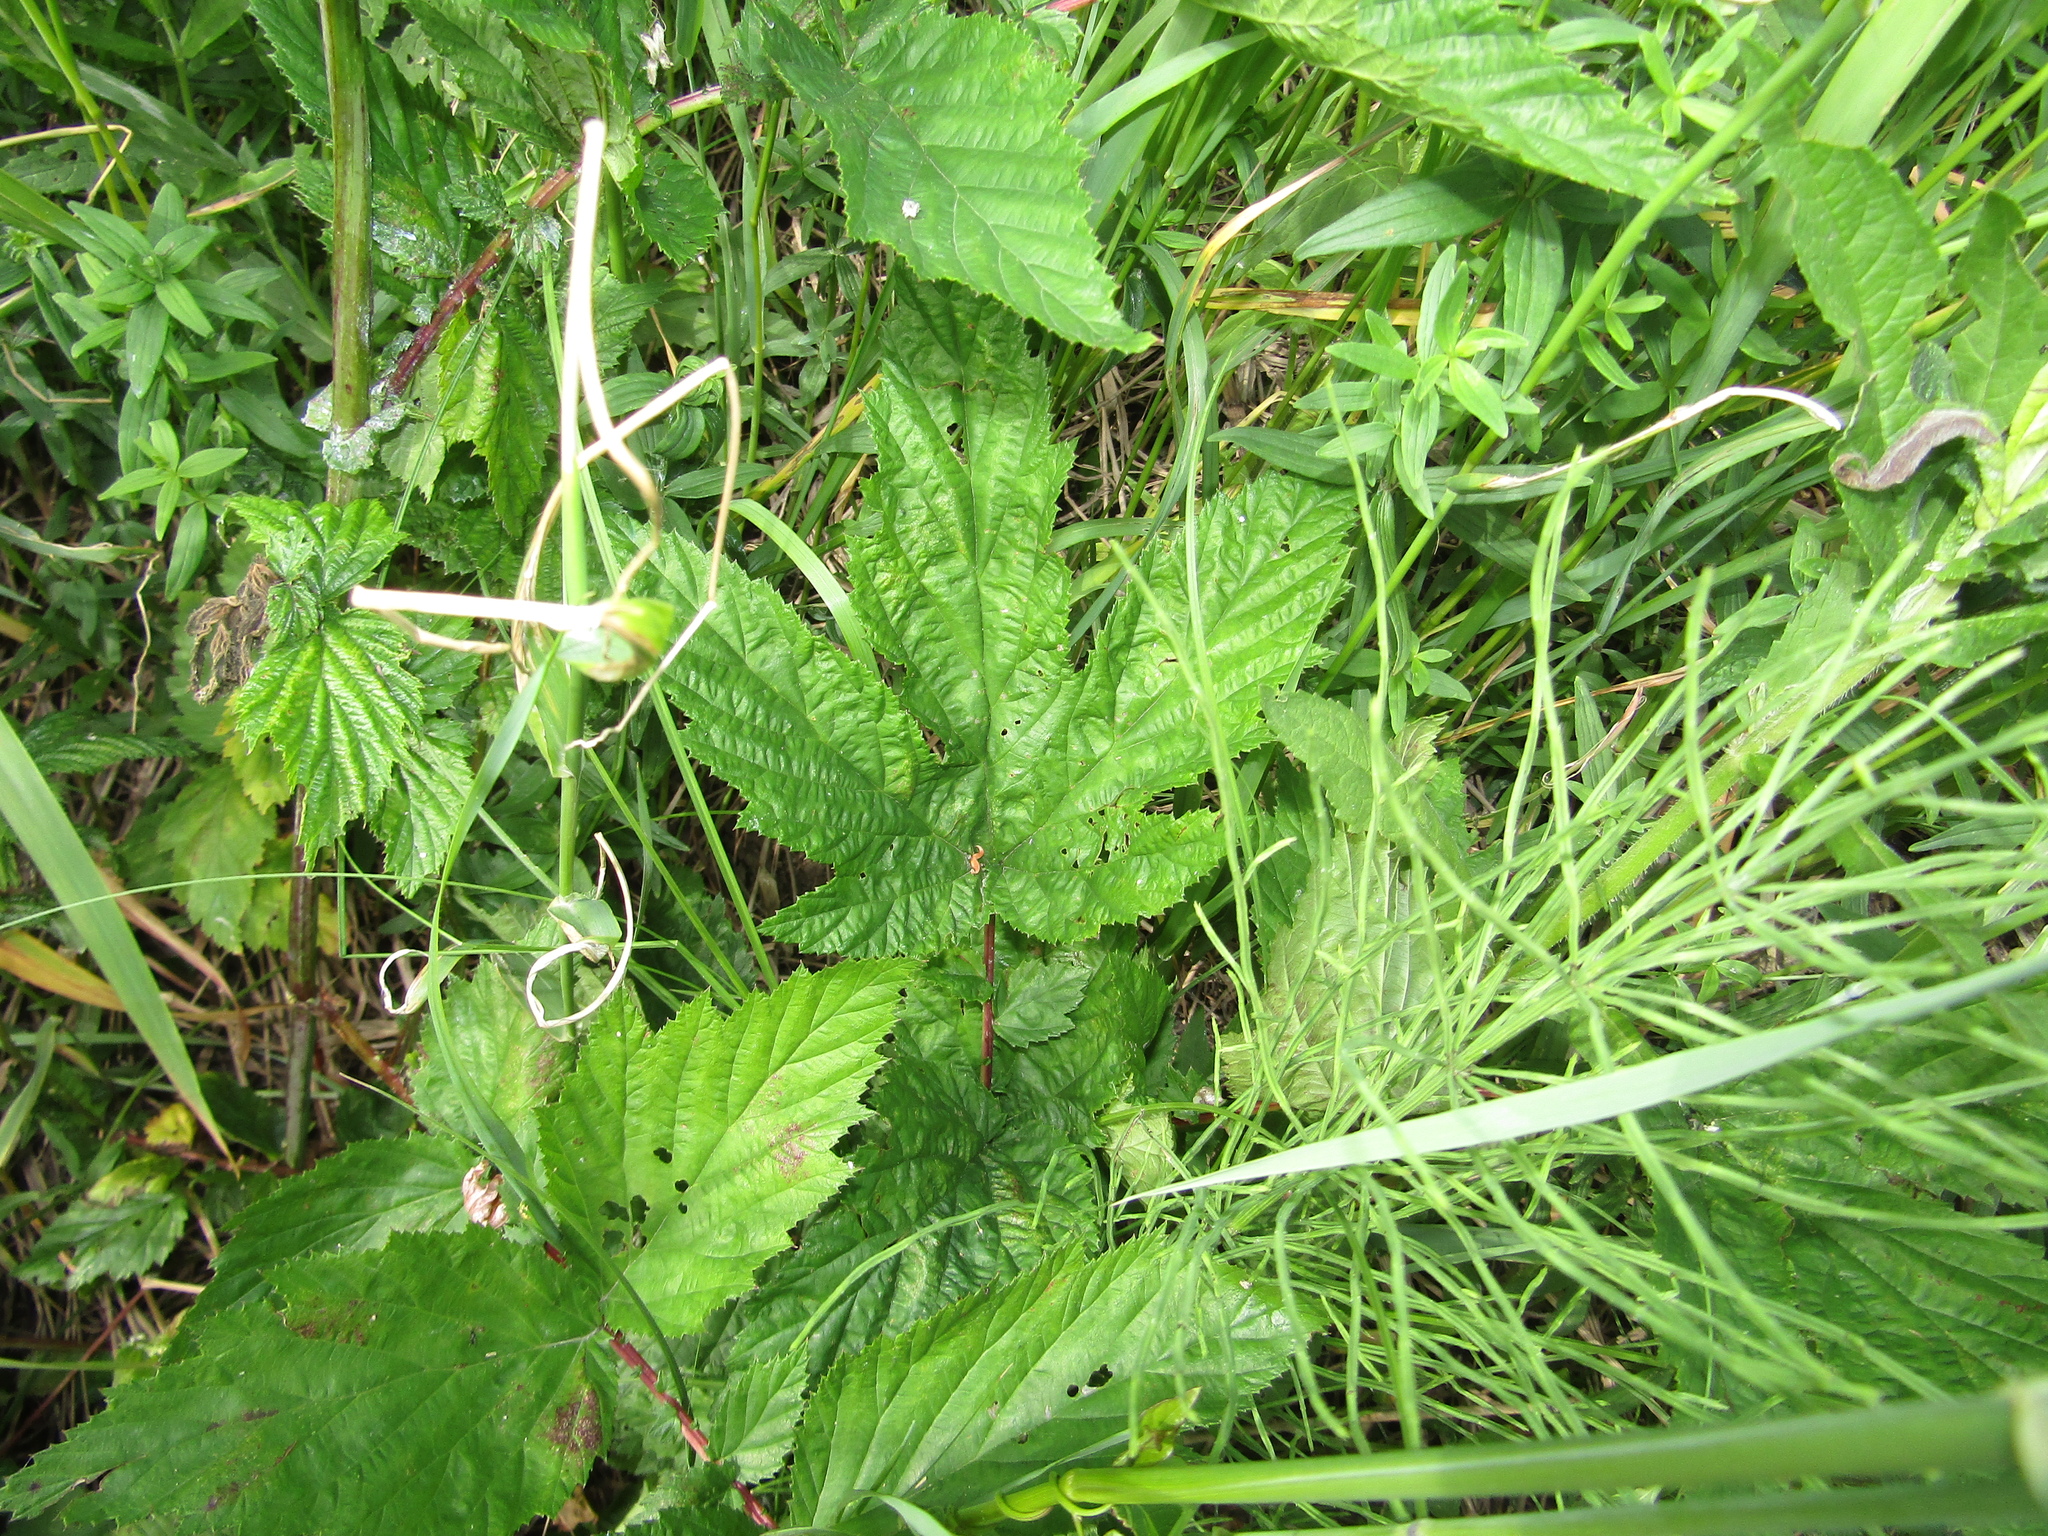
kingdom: Plantae
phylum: Tracheophyta
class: Magnoliopsida
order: Rosales
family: Rosaceae
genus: Filipendula
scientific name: Filipendula ulmaria
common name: Meadowsweet
